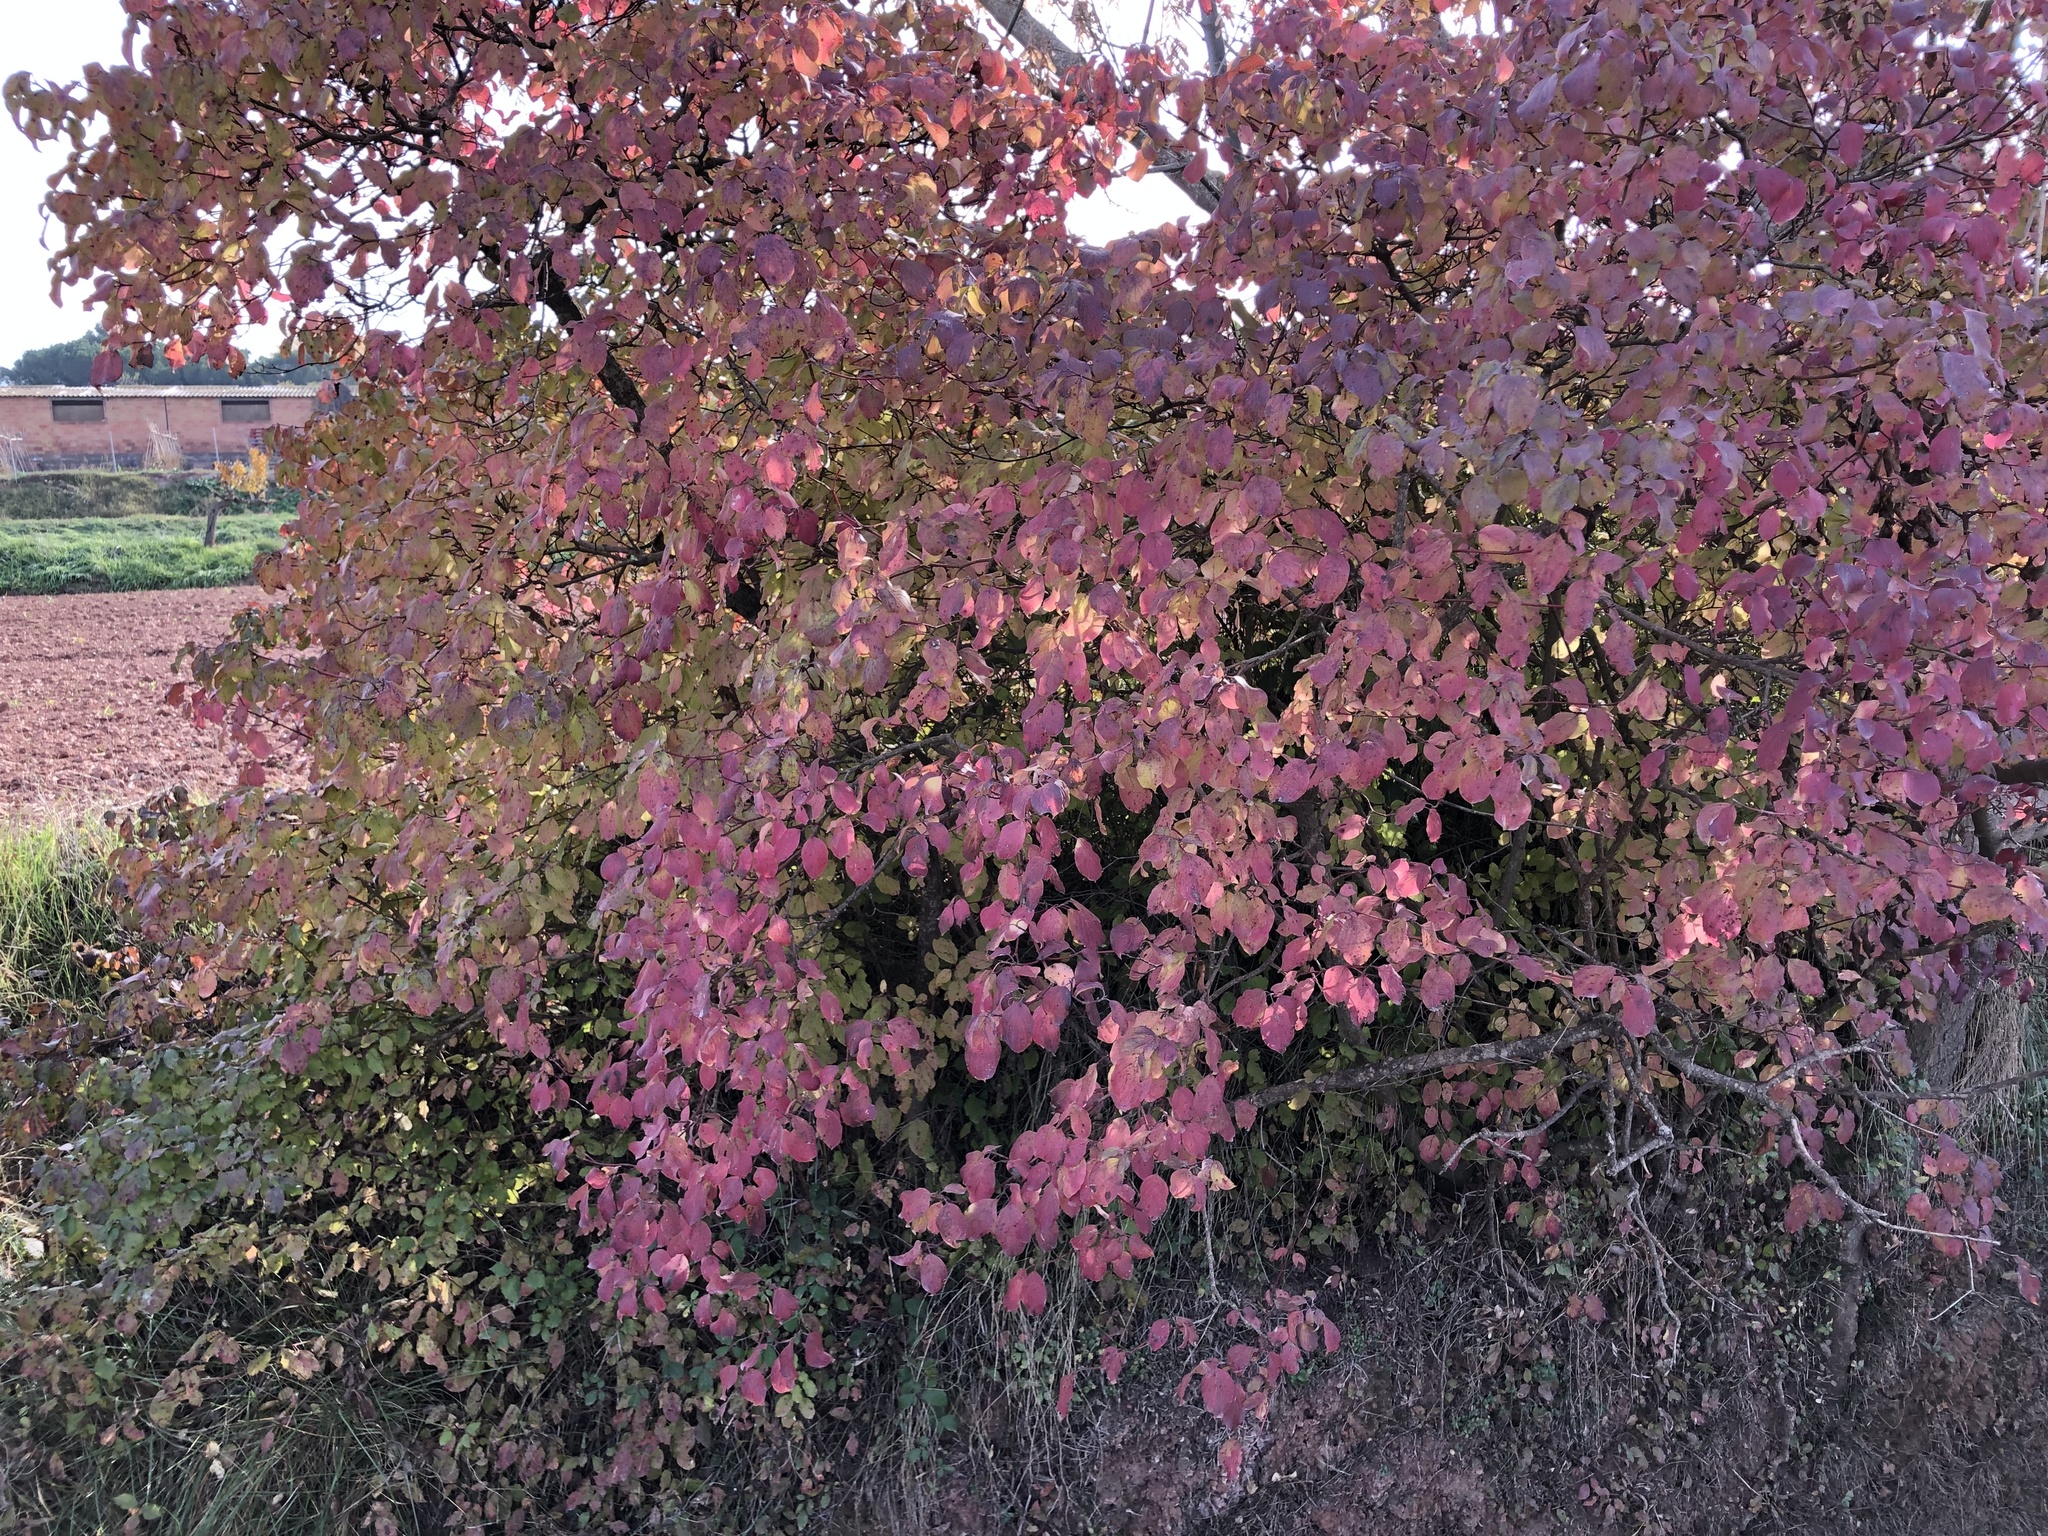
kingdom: Plantae
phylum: Tracheophyta
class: Magnoliopsida
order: Cornales
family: Cornaceae
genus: Cornus
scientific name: Cornus sanguinea
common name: Dogwood
